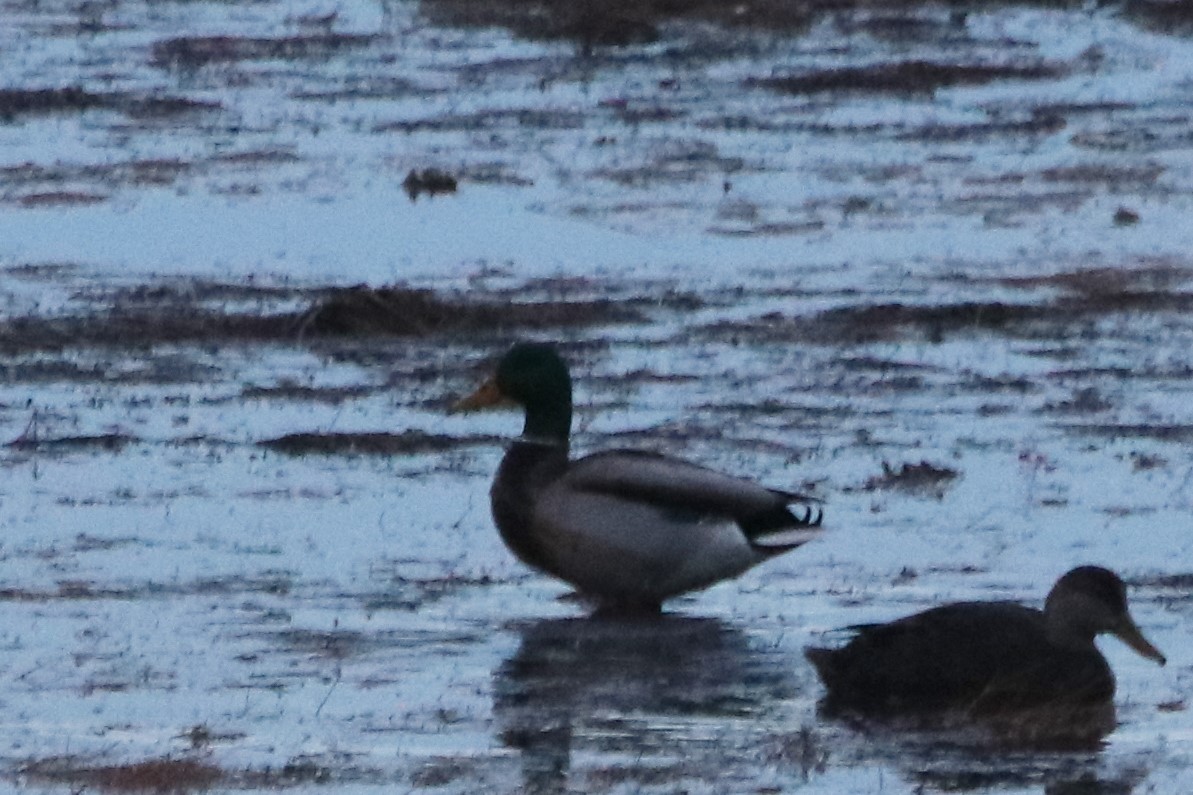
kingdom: Animalia
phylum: Chordata
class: Aves
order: Anseriformes
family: Anatidae
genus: Anas
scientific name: Anas platyrhynchos
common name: Mallard
